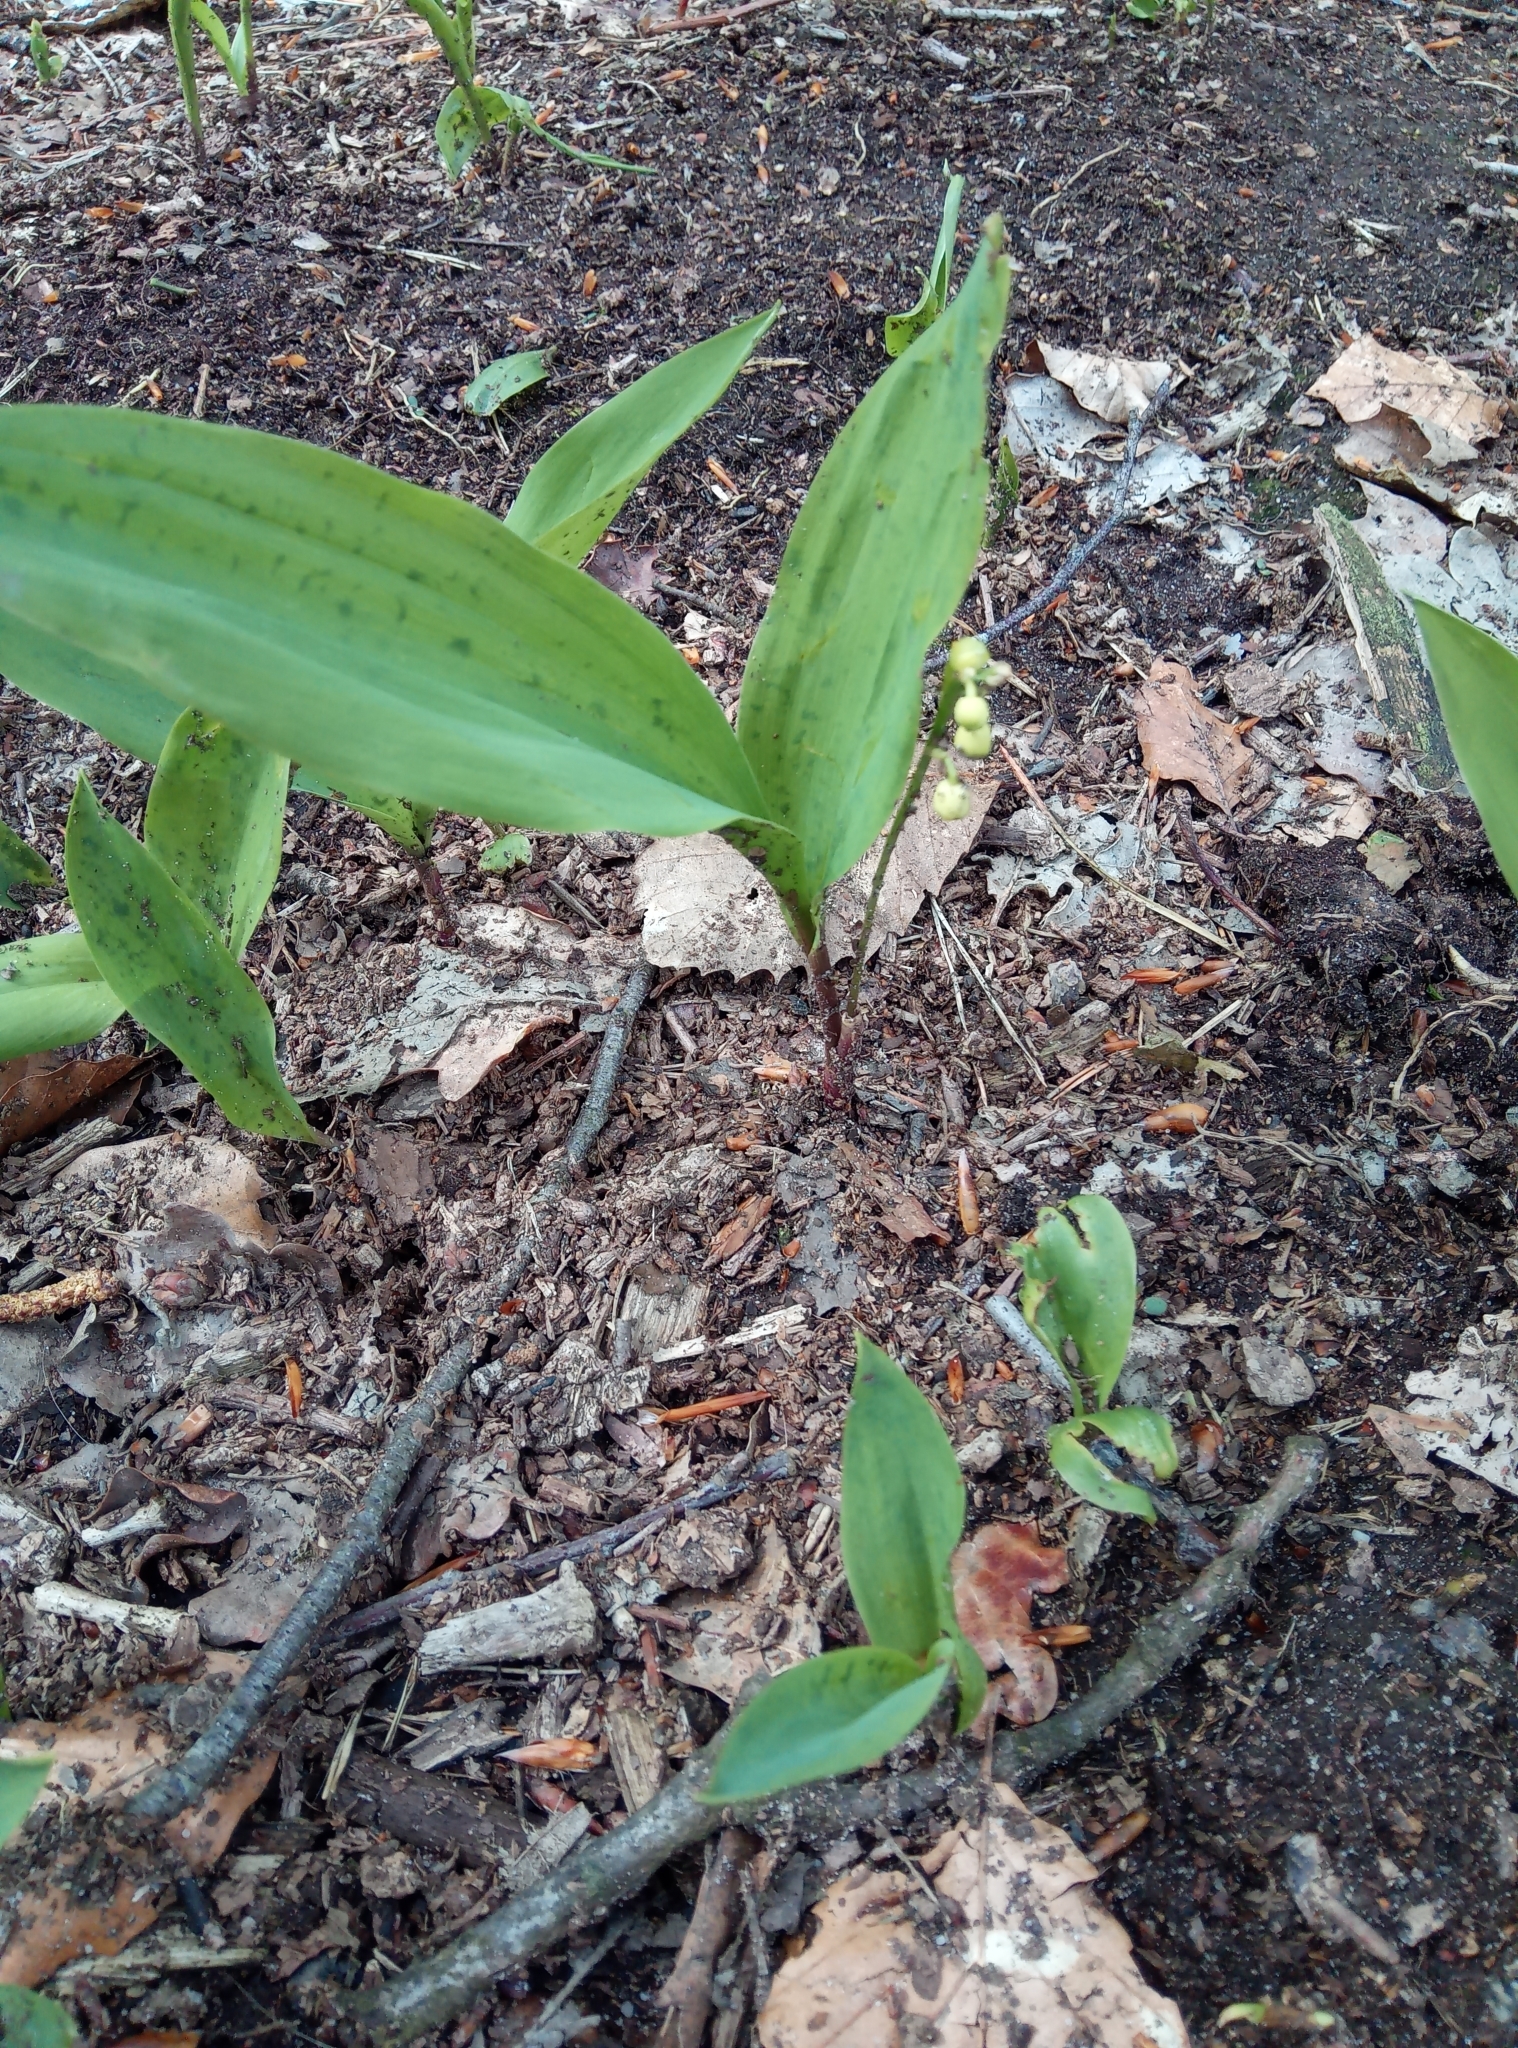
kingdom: Plantae
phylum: Tracheophyta
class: Liliopsida
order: Asparagales
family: Asparagaceae
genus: Convallaria
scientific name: Convallaria majalis
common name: Lily-of-the-valley
